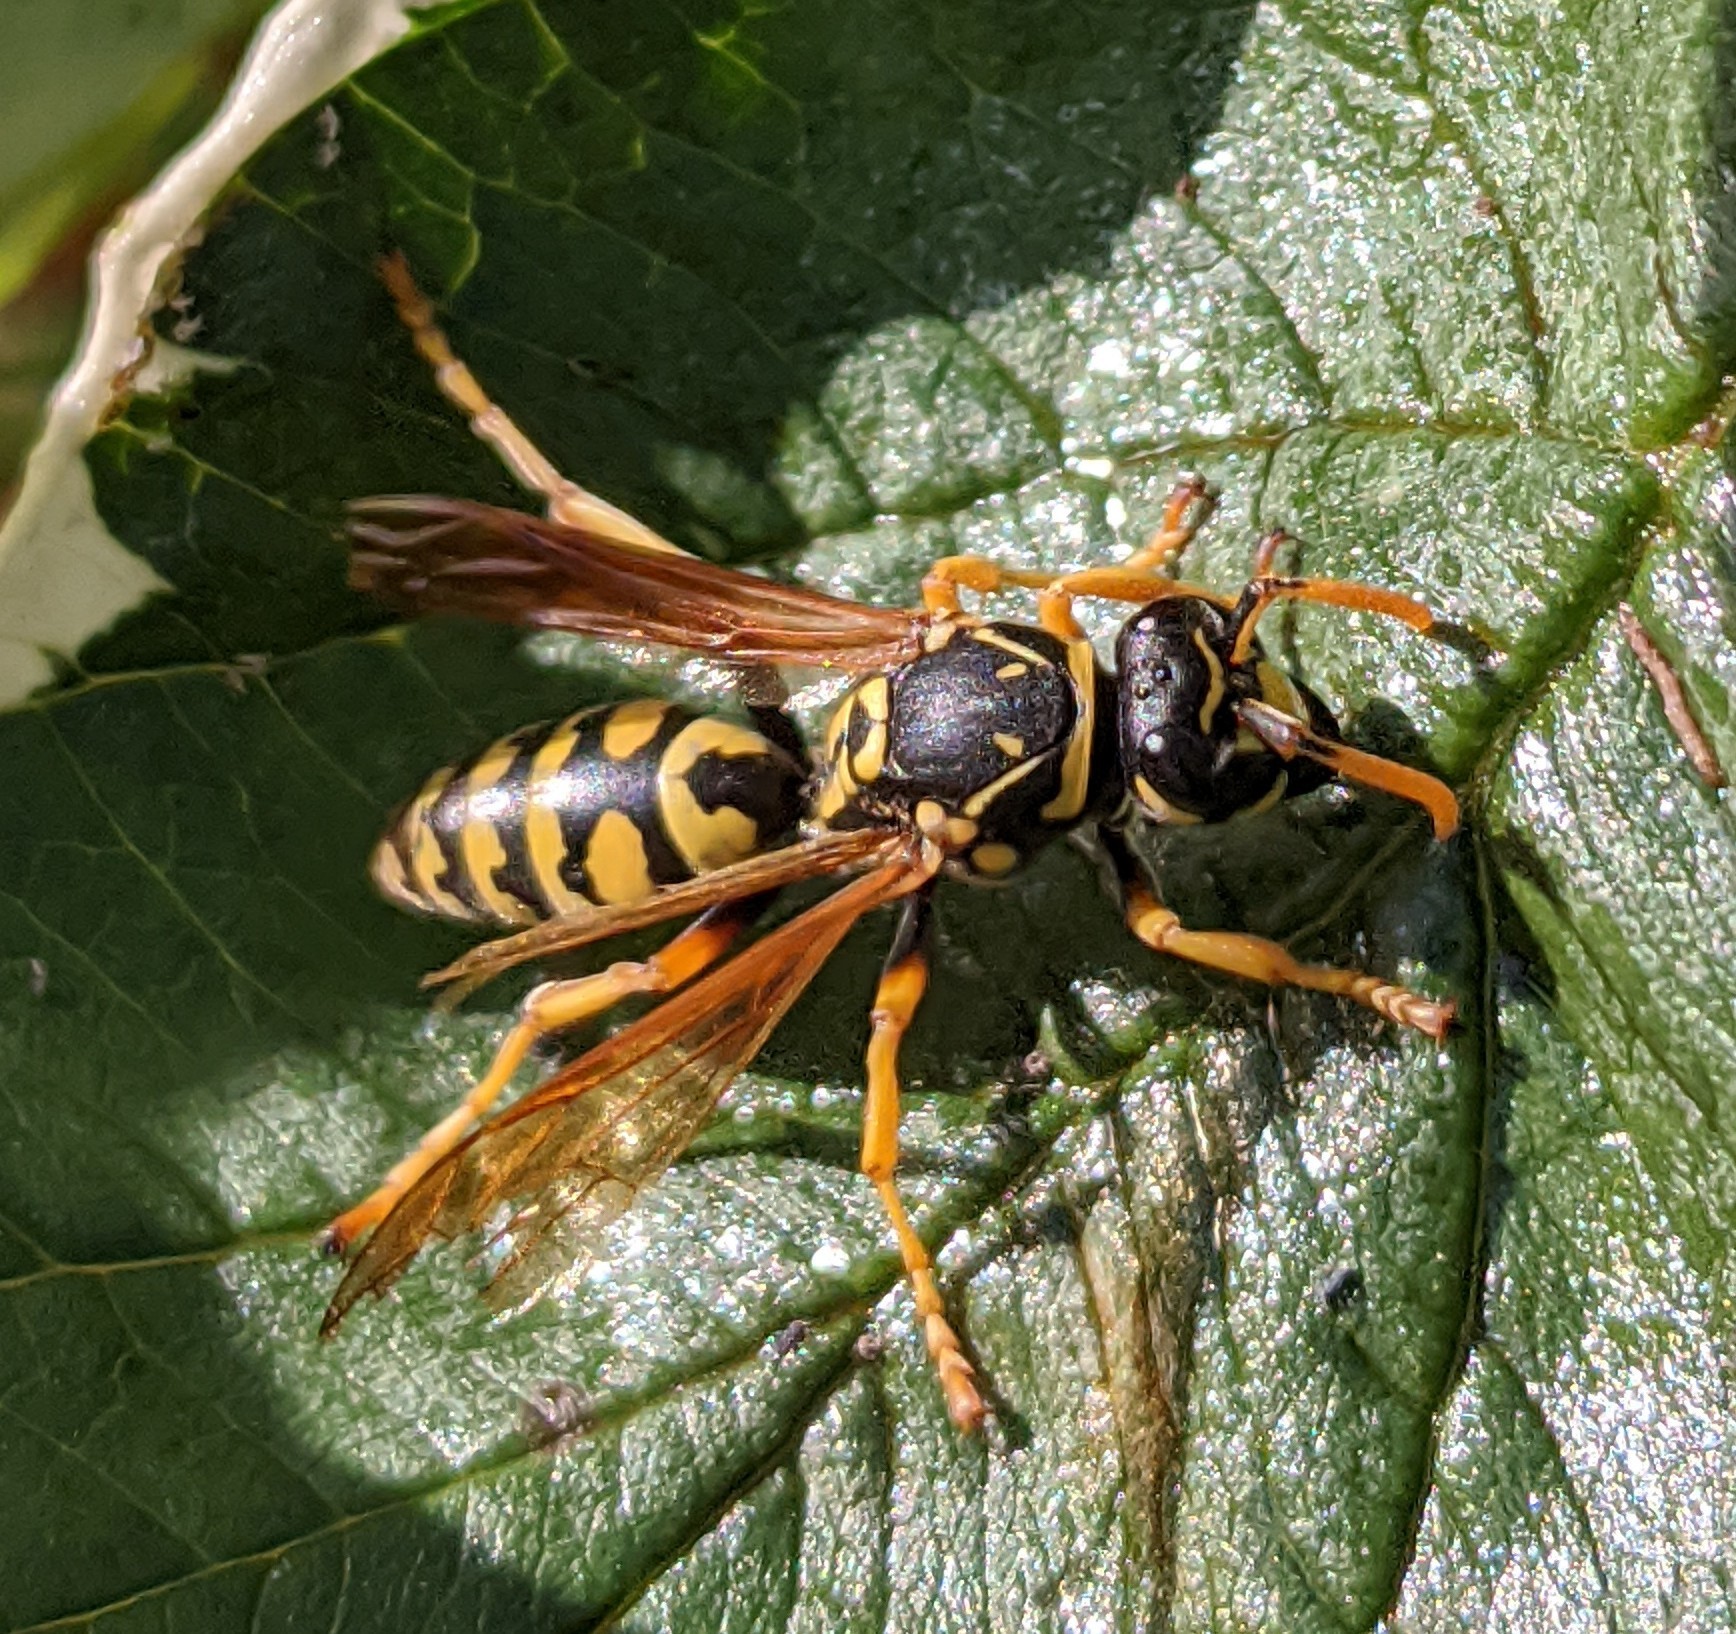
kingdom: Animalia
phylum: Arthropoda
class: Insecta
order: Hymenoptera
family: Eumenidae
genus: Polistes
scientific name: Polistes dominula
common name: Paper wasp
